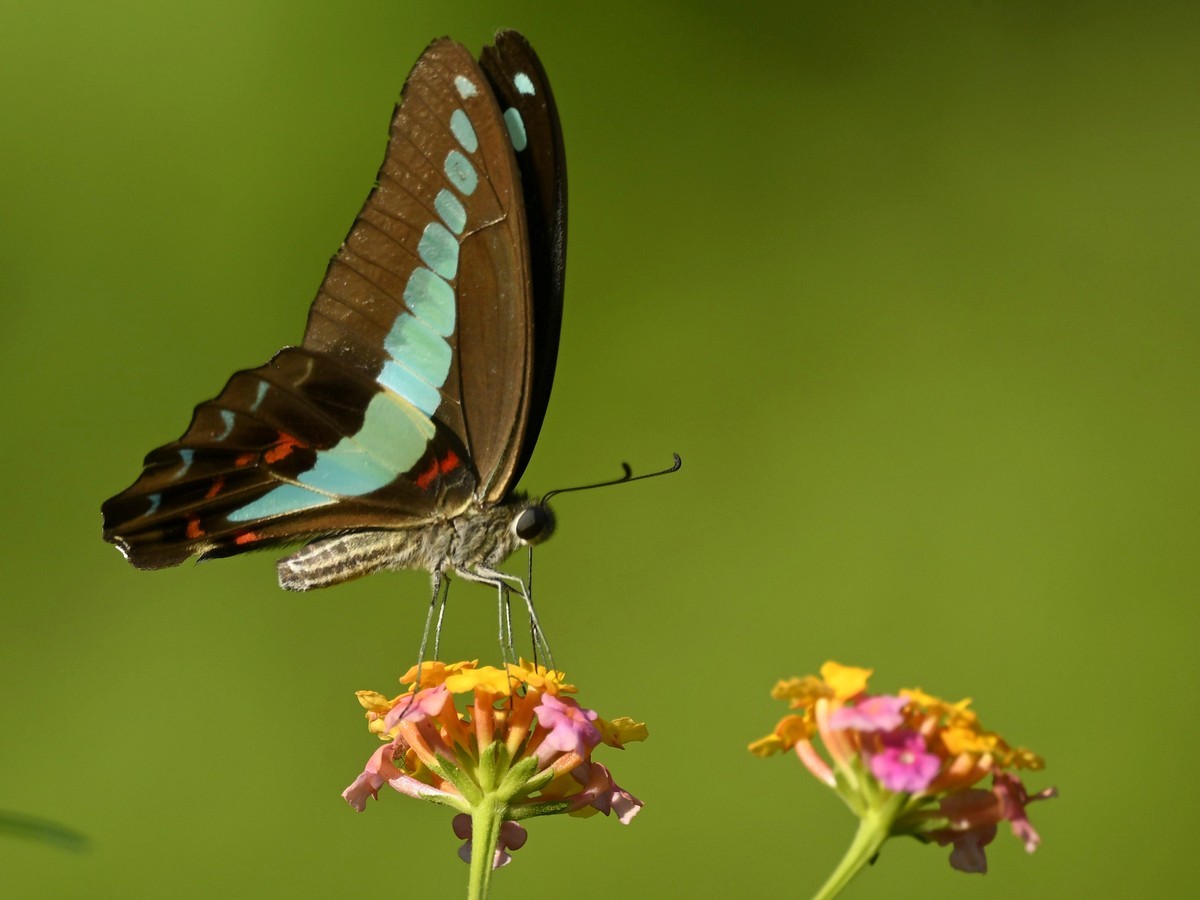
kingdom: Fungi
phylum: Ascomycota
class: Sordariomycetes
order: Microascales
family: Microascaceae
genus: Graphium
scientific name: Graphium sarpedon
